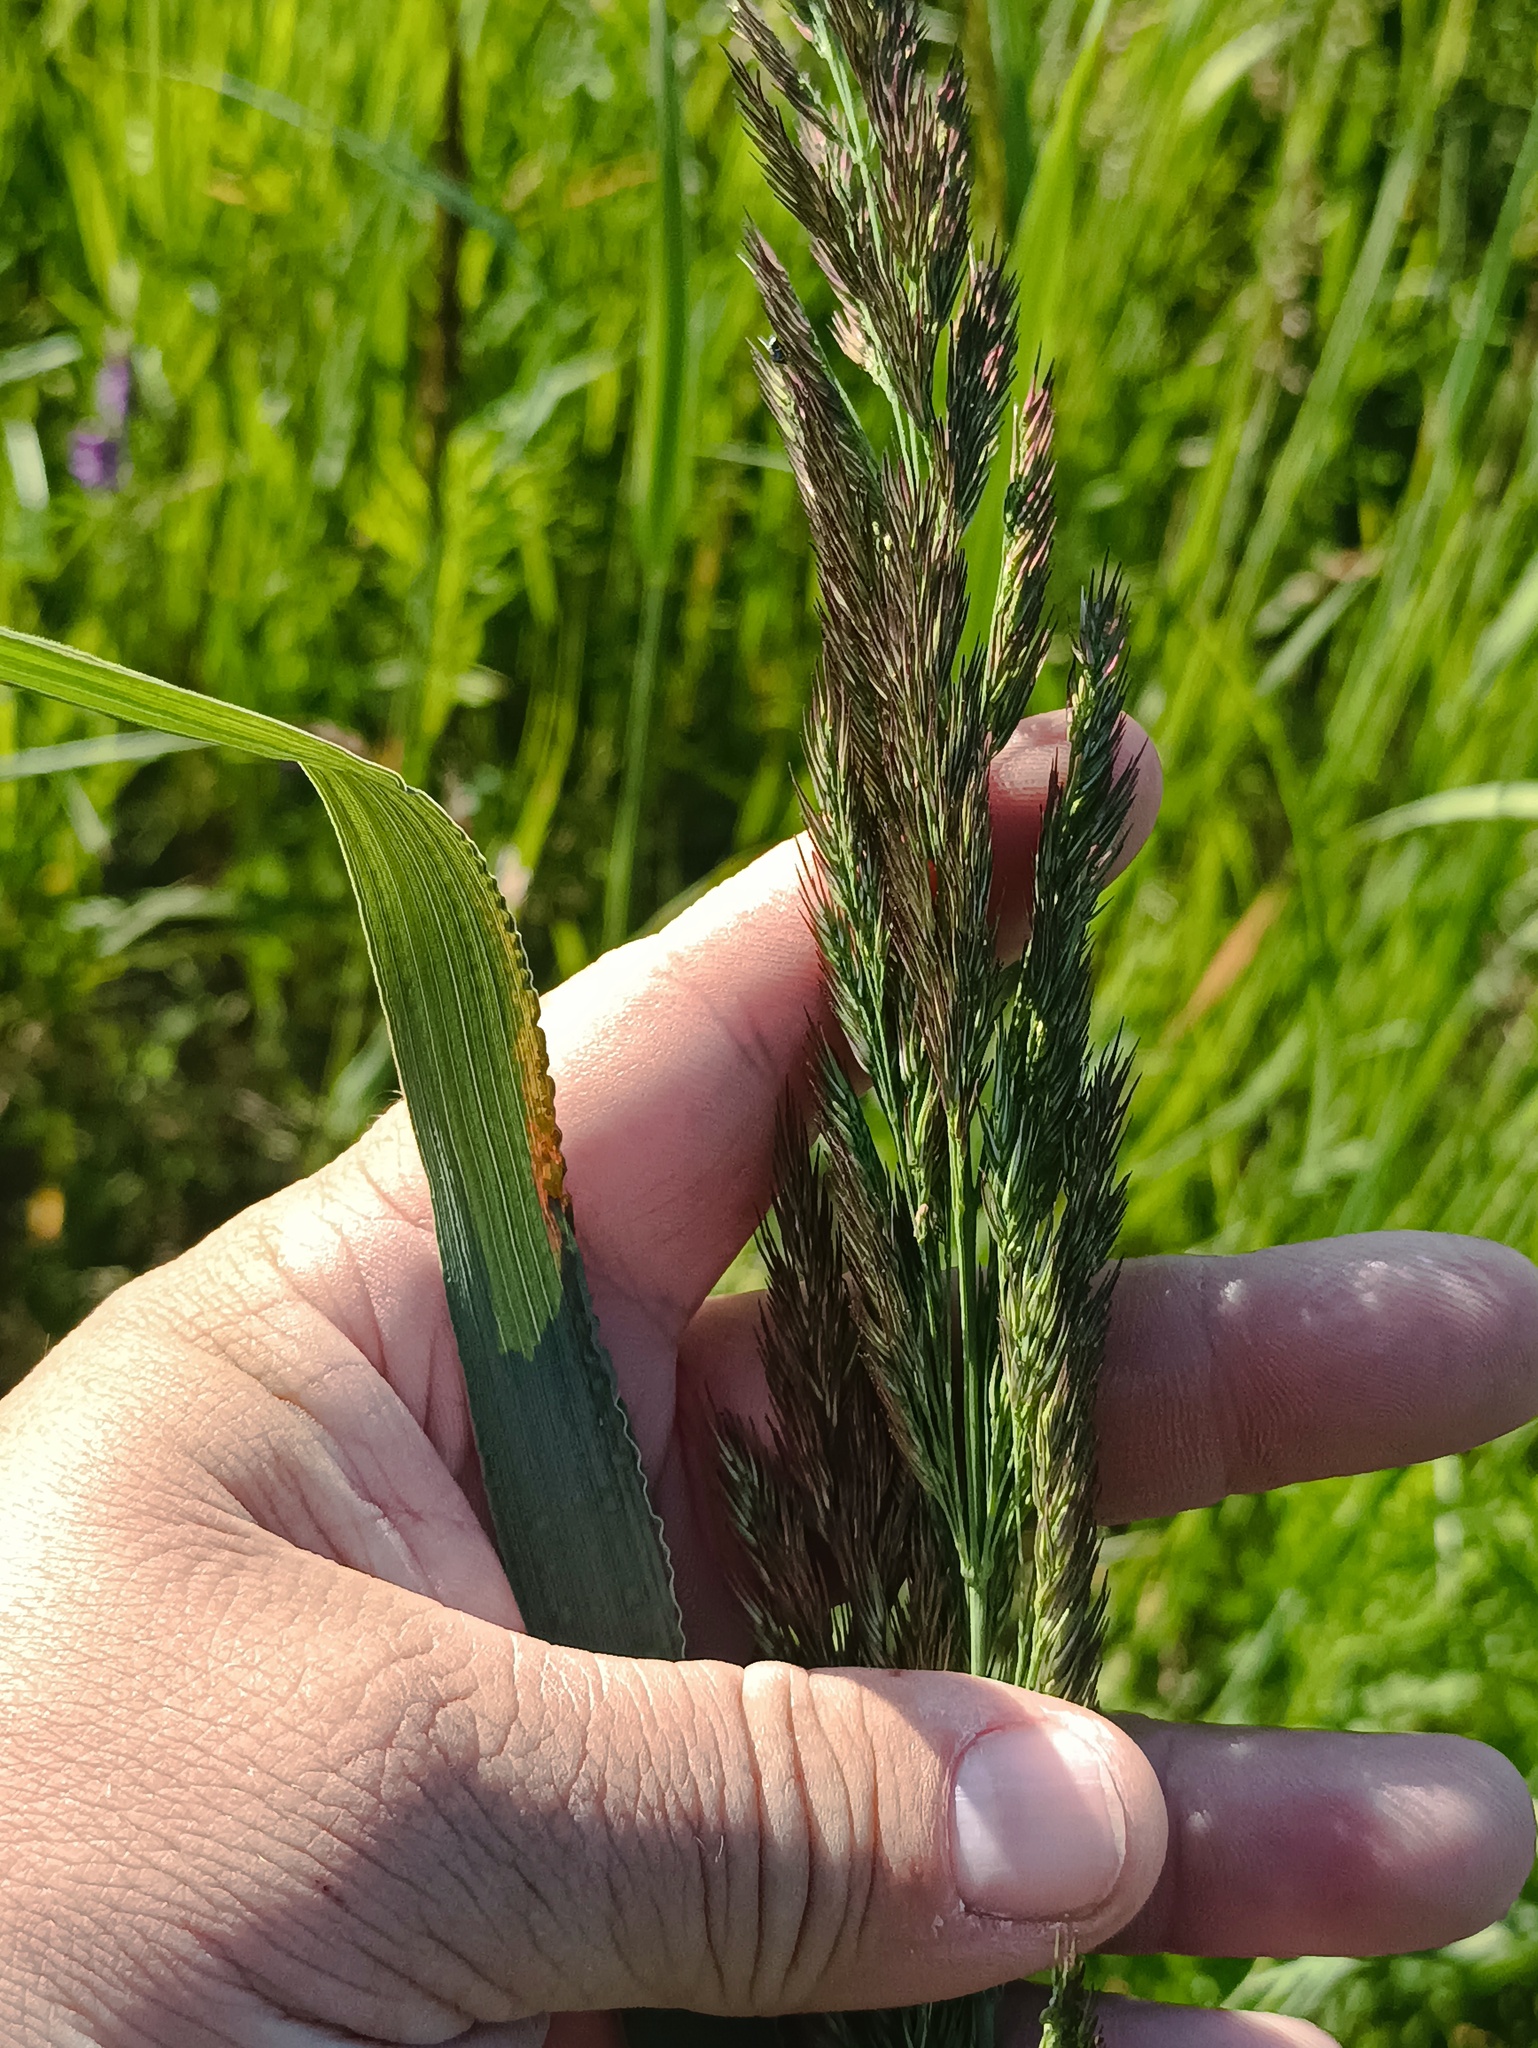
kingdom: Plantae
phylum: Tracheophyta
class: Liliopsida
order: Poales
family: Poaceae
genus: Calamagrostis
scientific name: Calamagrostis epigejos
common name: Wood small-reed
